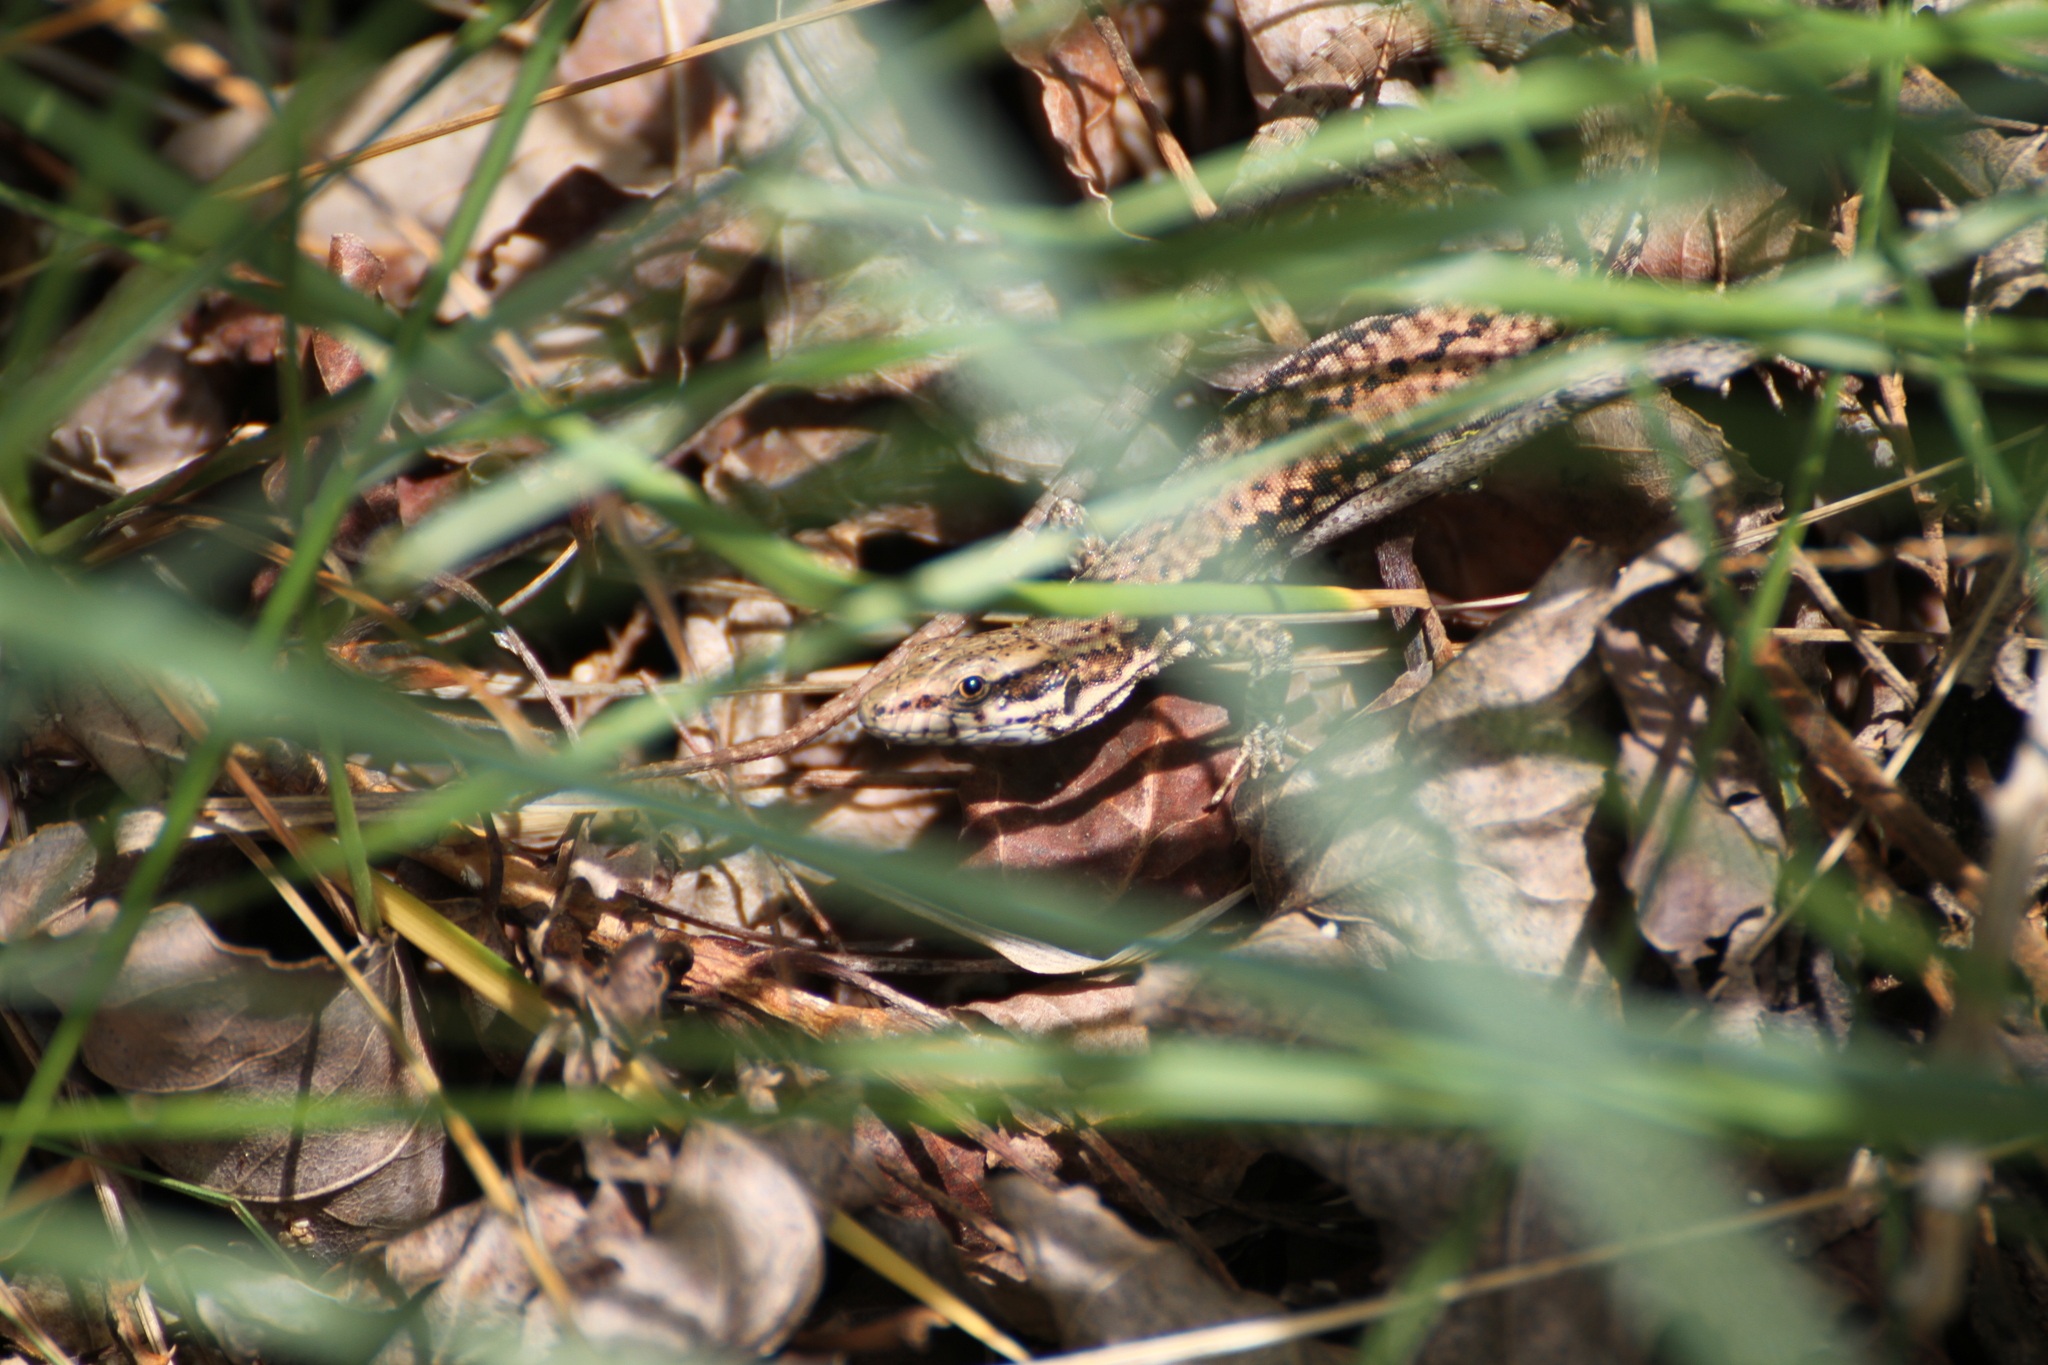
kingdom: Animalia
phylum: Chordata
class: Squamata
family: Lacertidae
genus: Podarcis
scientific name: Podarcis muralis
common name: Common wall lizard
